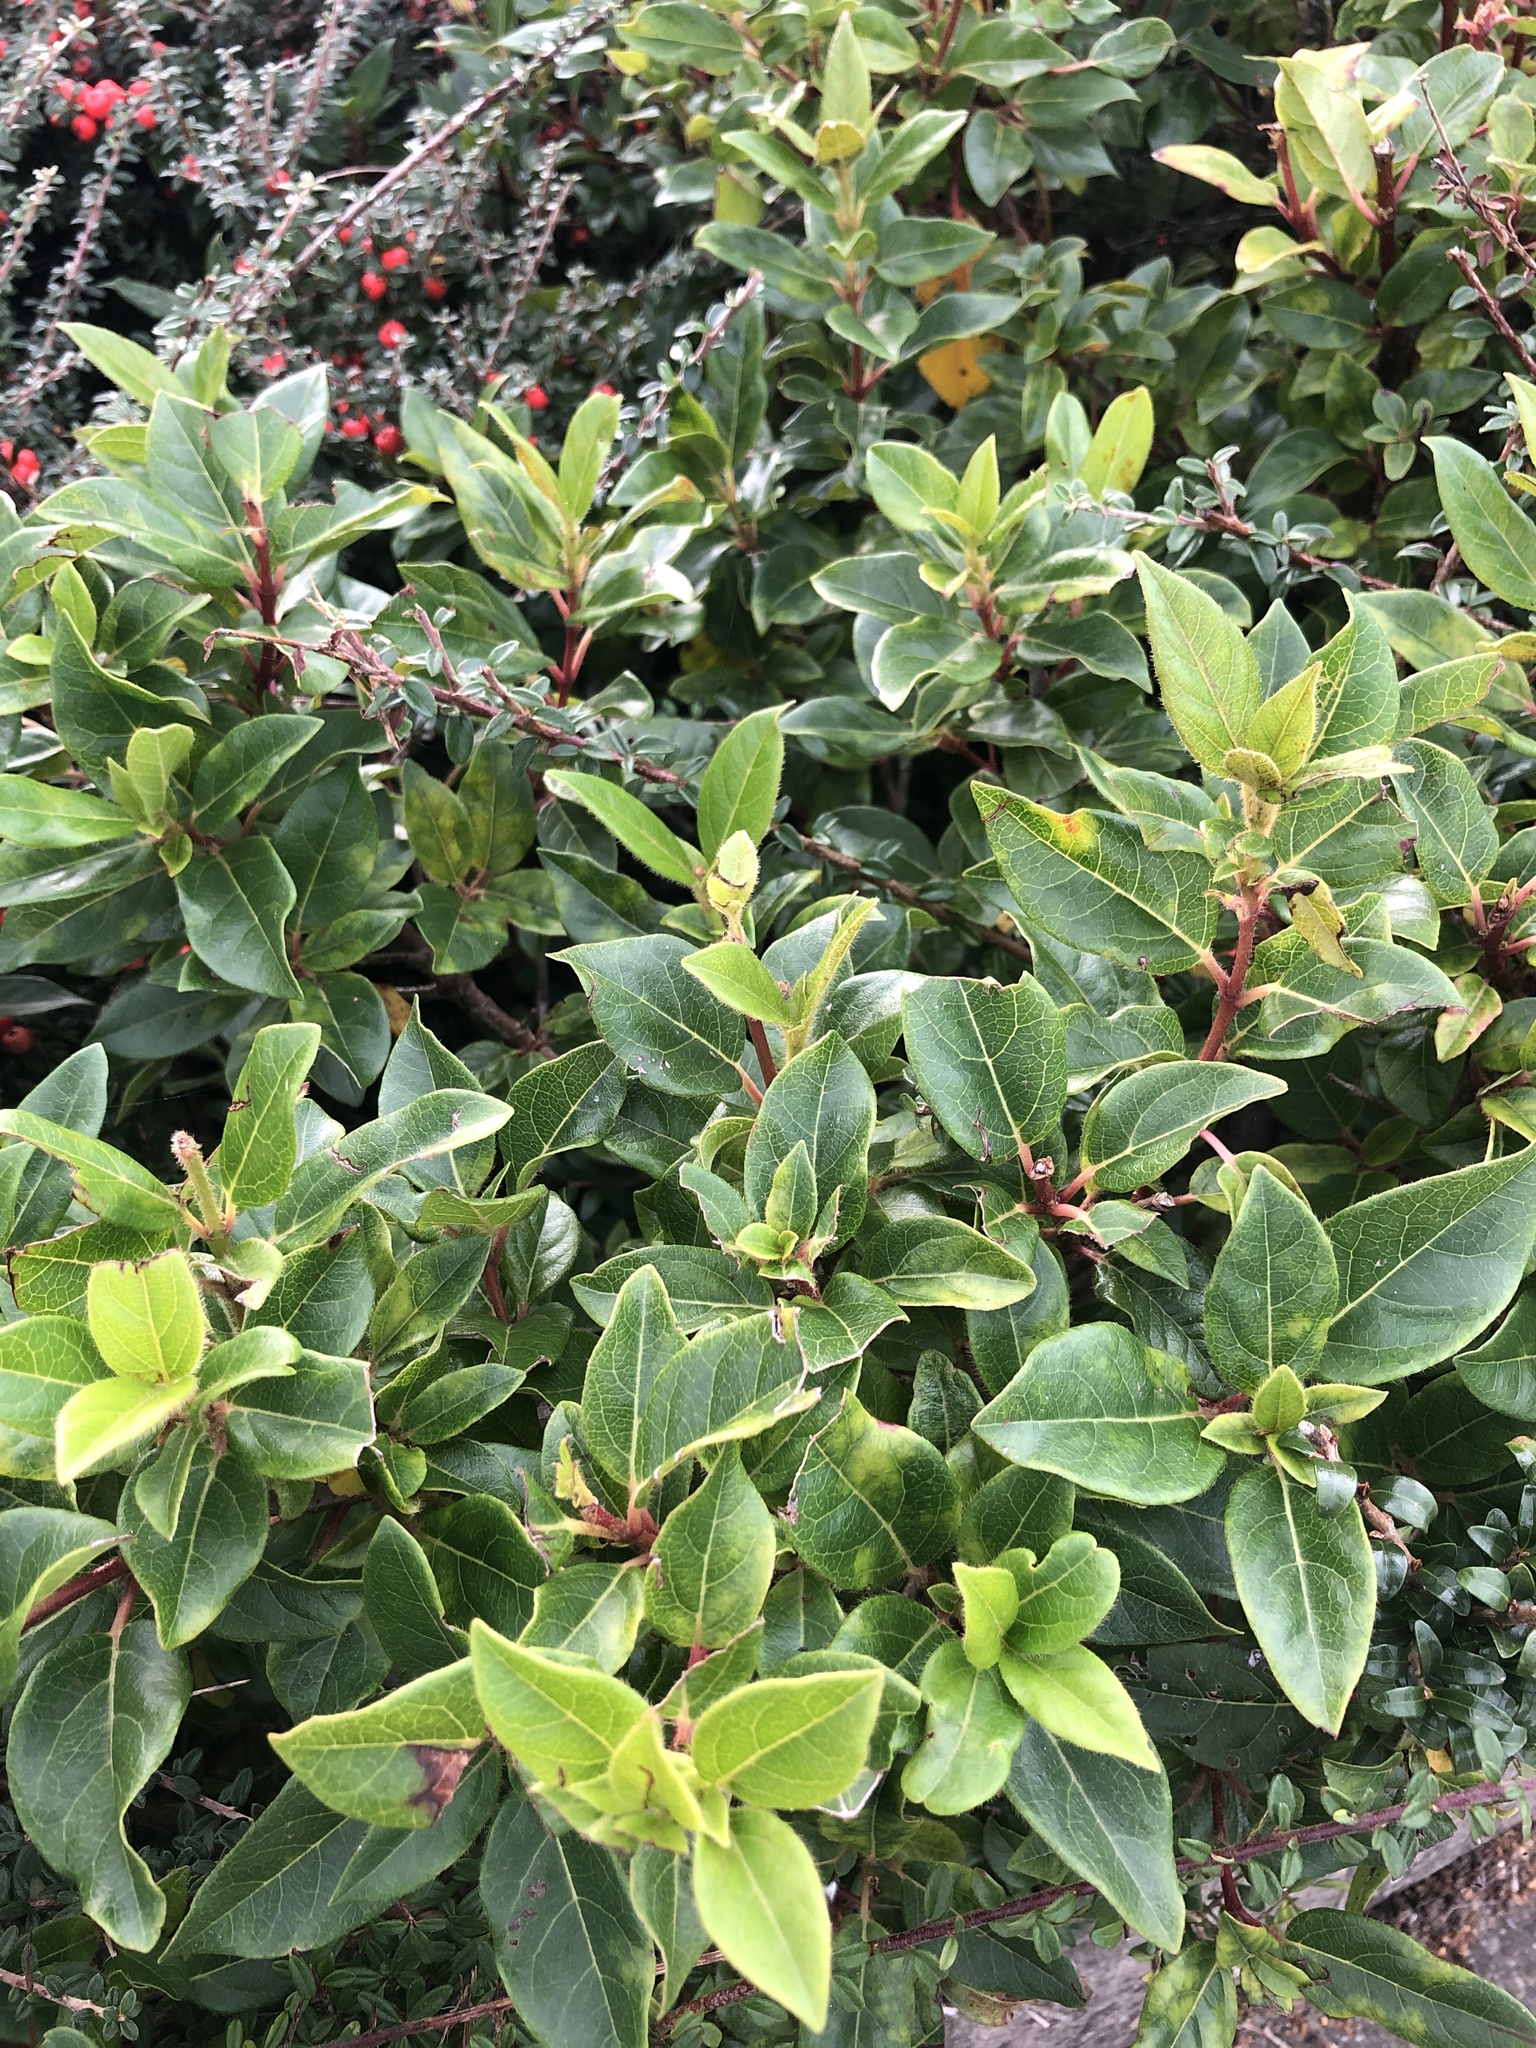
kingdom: Plantae
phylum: Tracheophyta
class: Magnoliopsida
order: Dipsacales
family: Viburnaceae
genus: Viburnum
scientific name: Viburnum tinus
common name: Laurustinus
